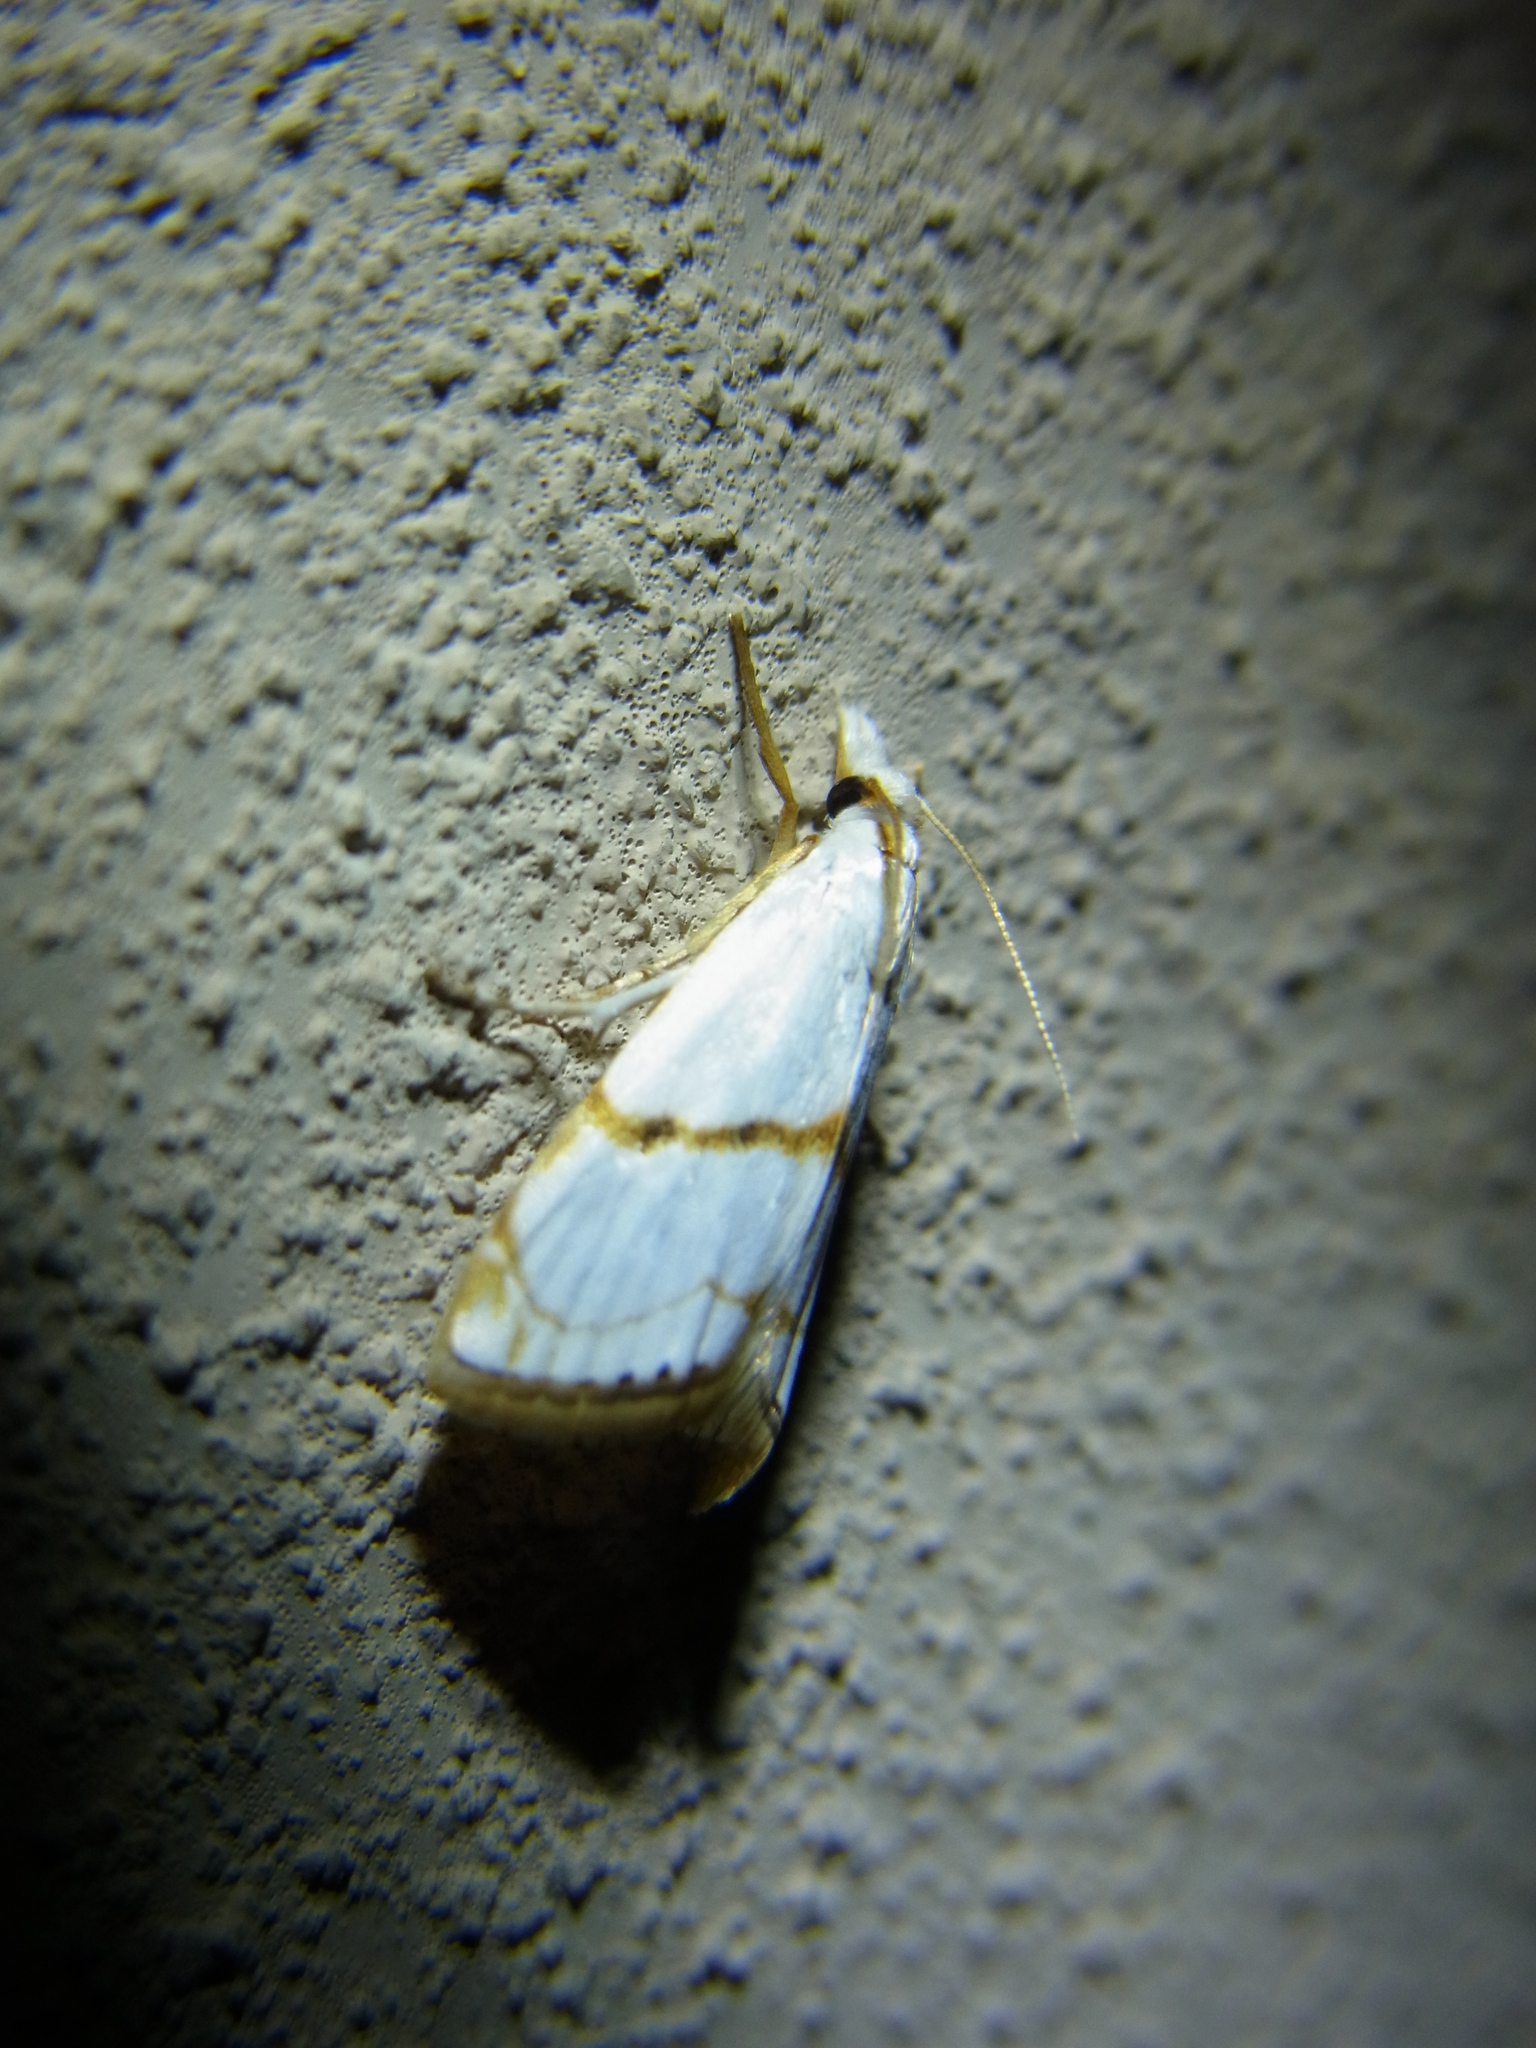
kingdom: Animalia
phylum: Arthropoda
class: Insecta
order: Lepidoptera
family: Crambidae
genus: Pseudargyria
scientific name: Pseudargyria interruptella
